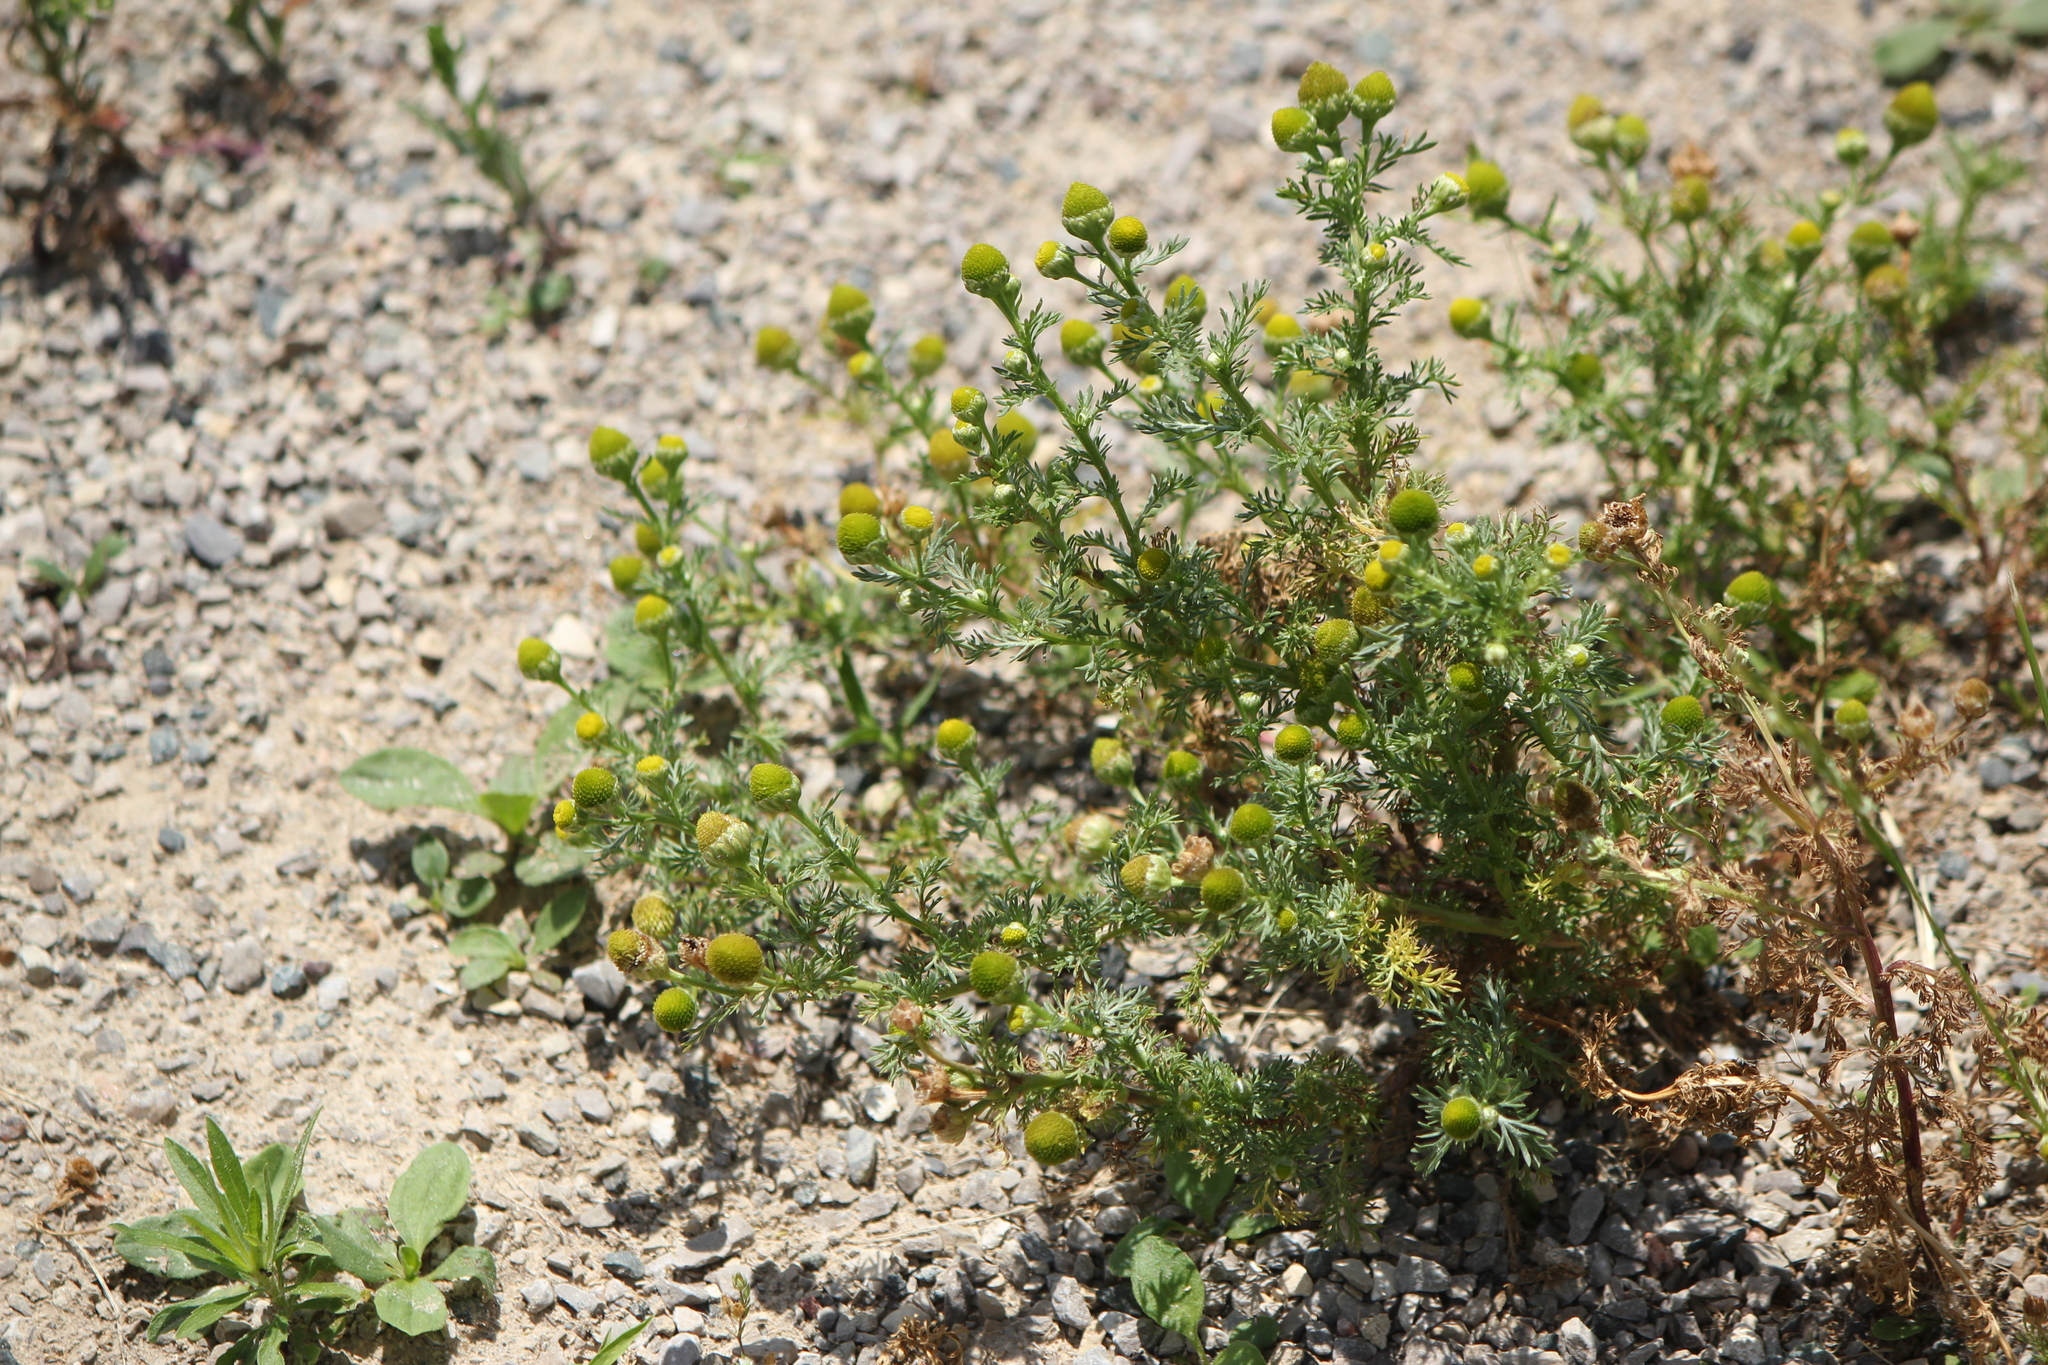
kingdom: Plantae
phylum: Tracheophyta
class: Magnoliopsida
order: Asterales
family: Asteraceae
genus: Matricaria
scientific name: Matricaria discoidea
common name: Disc mayweed
